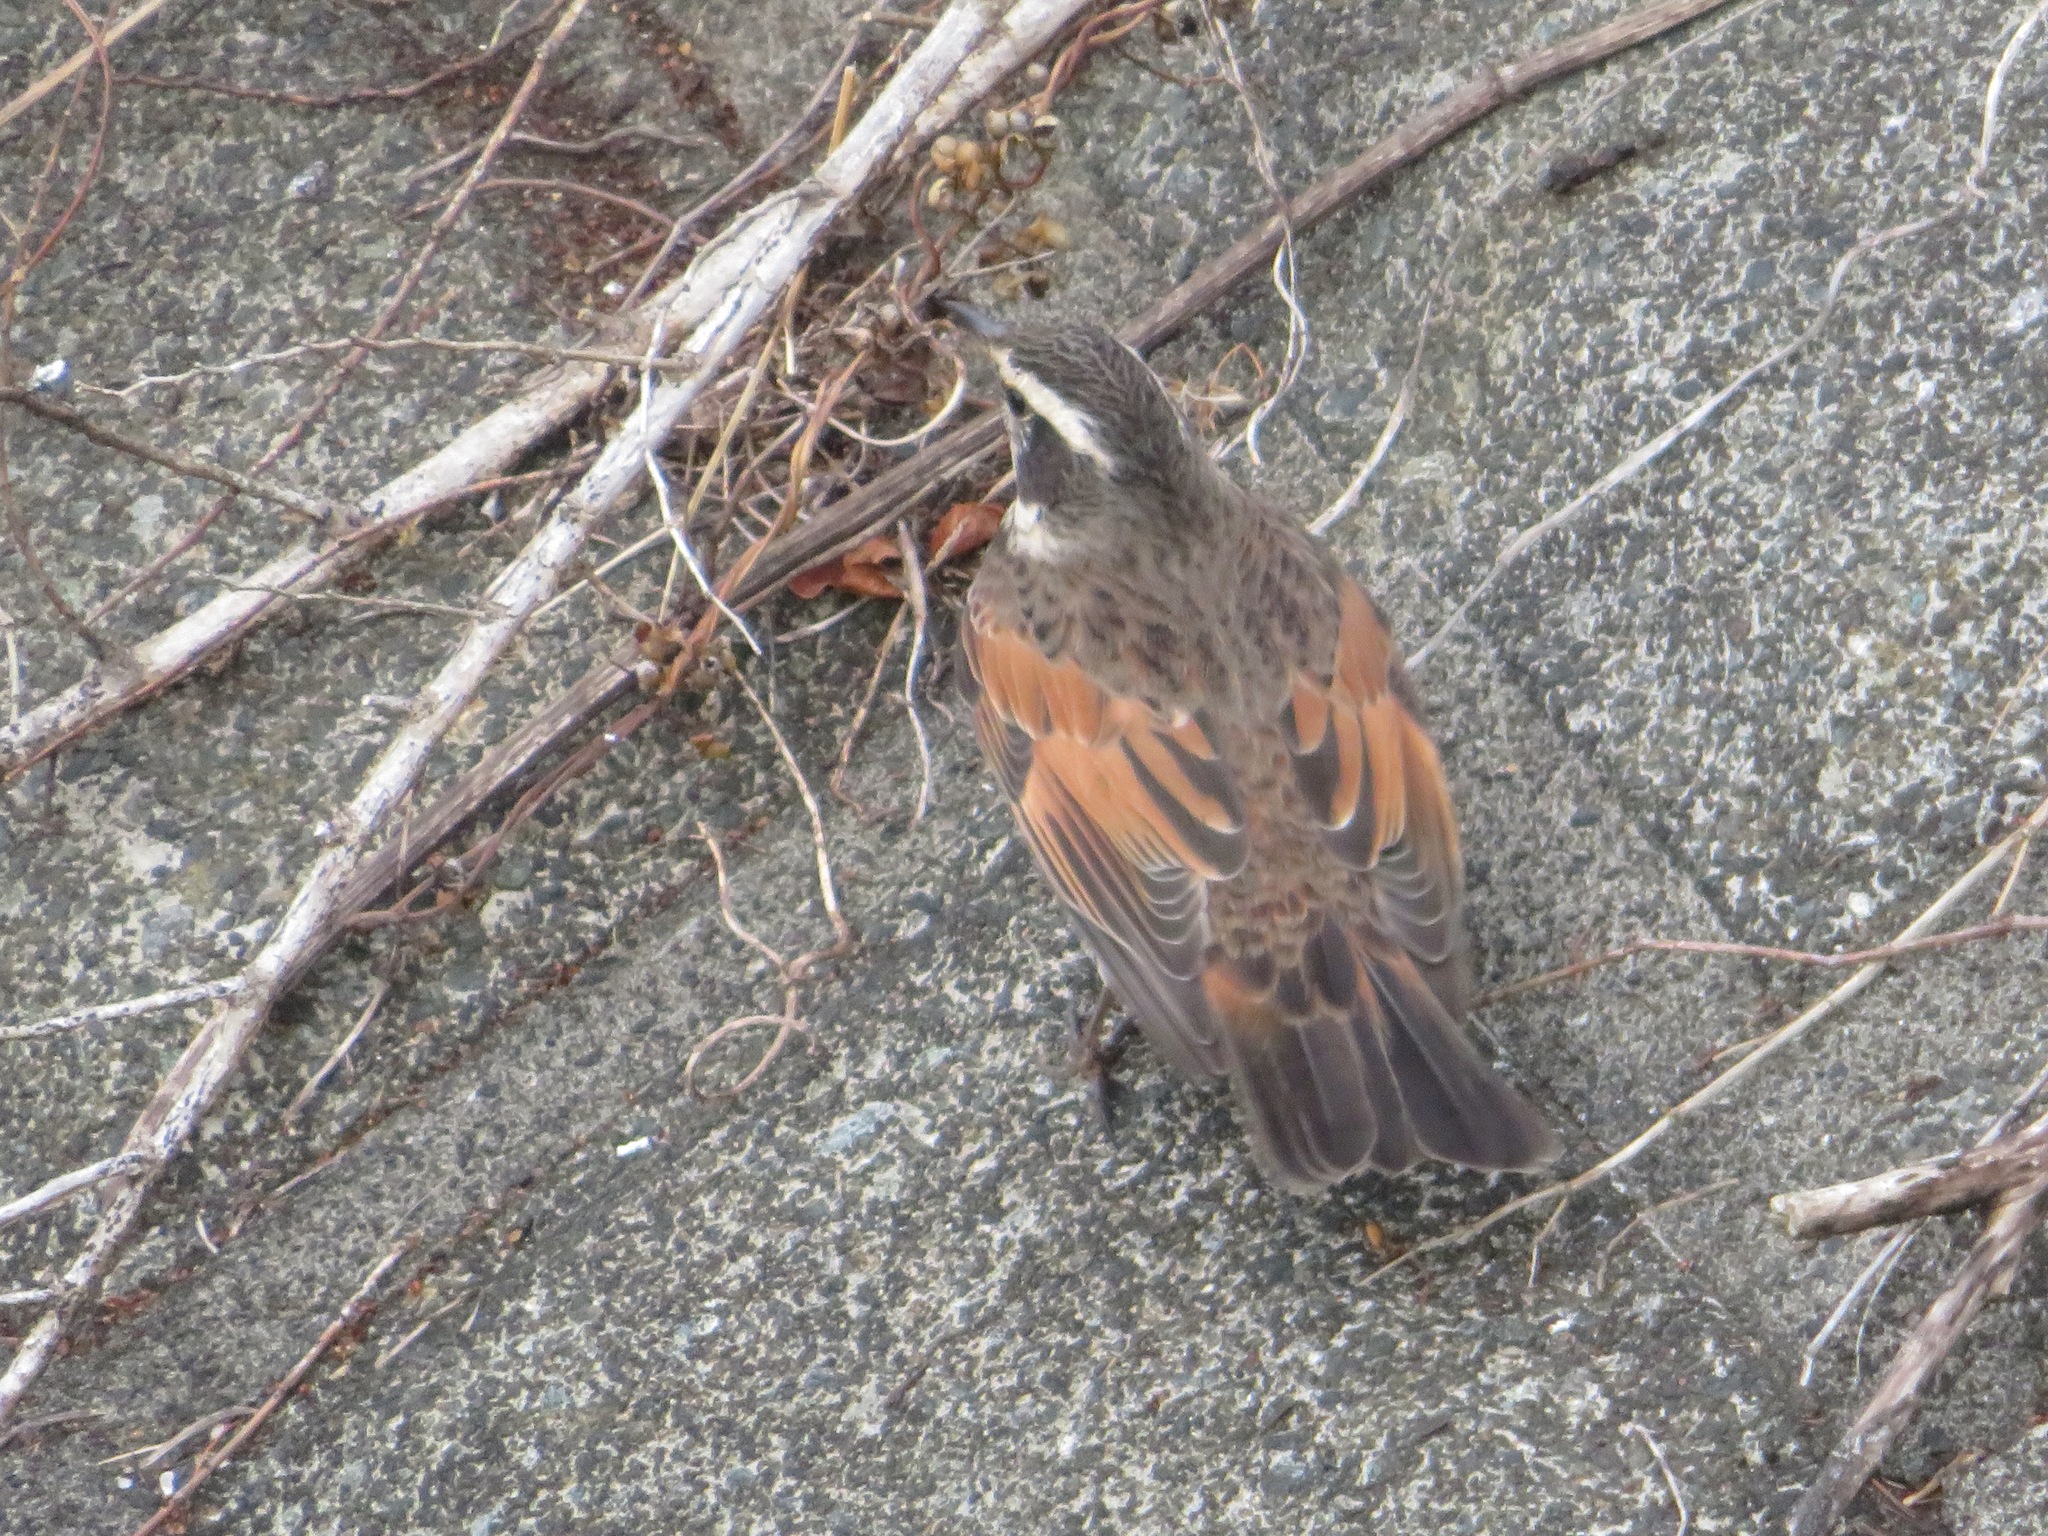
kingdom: Animalia
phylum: Chordata
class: Aves
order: Passeriformes
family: Turdidae
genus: Turdus
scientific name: Turdus eunomus
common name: Dusky thrush
